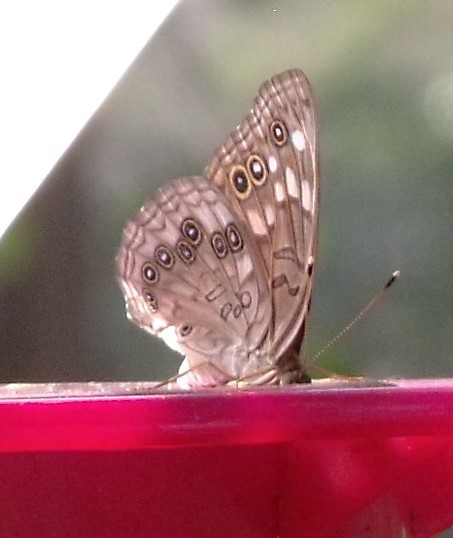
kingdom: Animalia
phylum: Arthropoda
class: Insecta
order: Lepidoptera
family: Nymphalidae
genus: Asterocampa
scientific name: Asterocampa celtis
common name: Hackberry emperor
